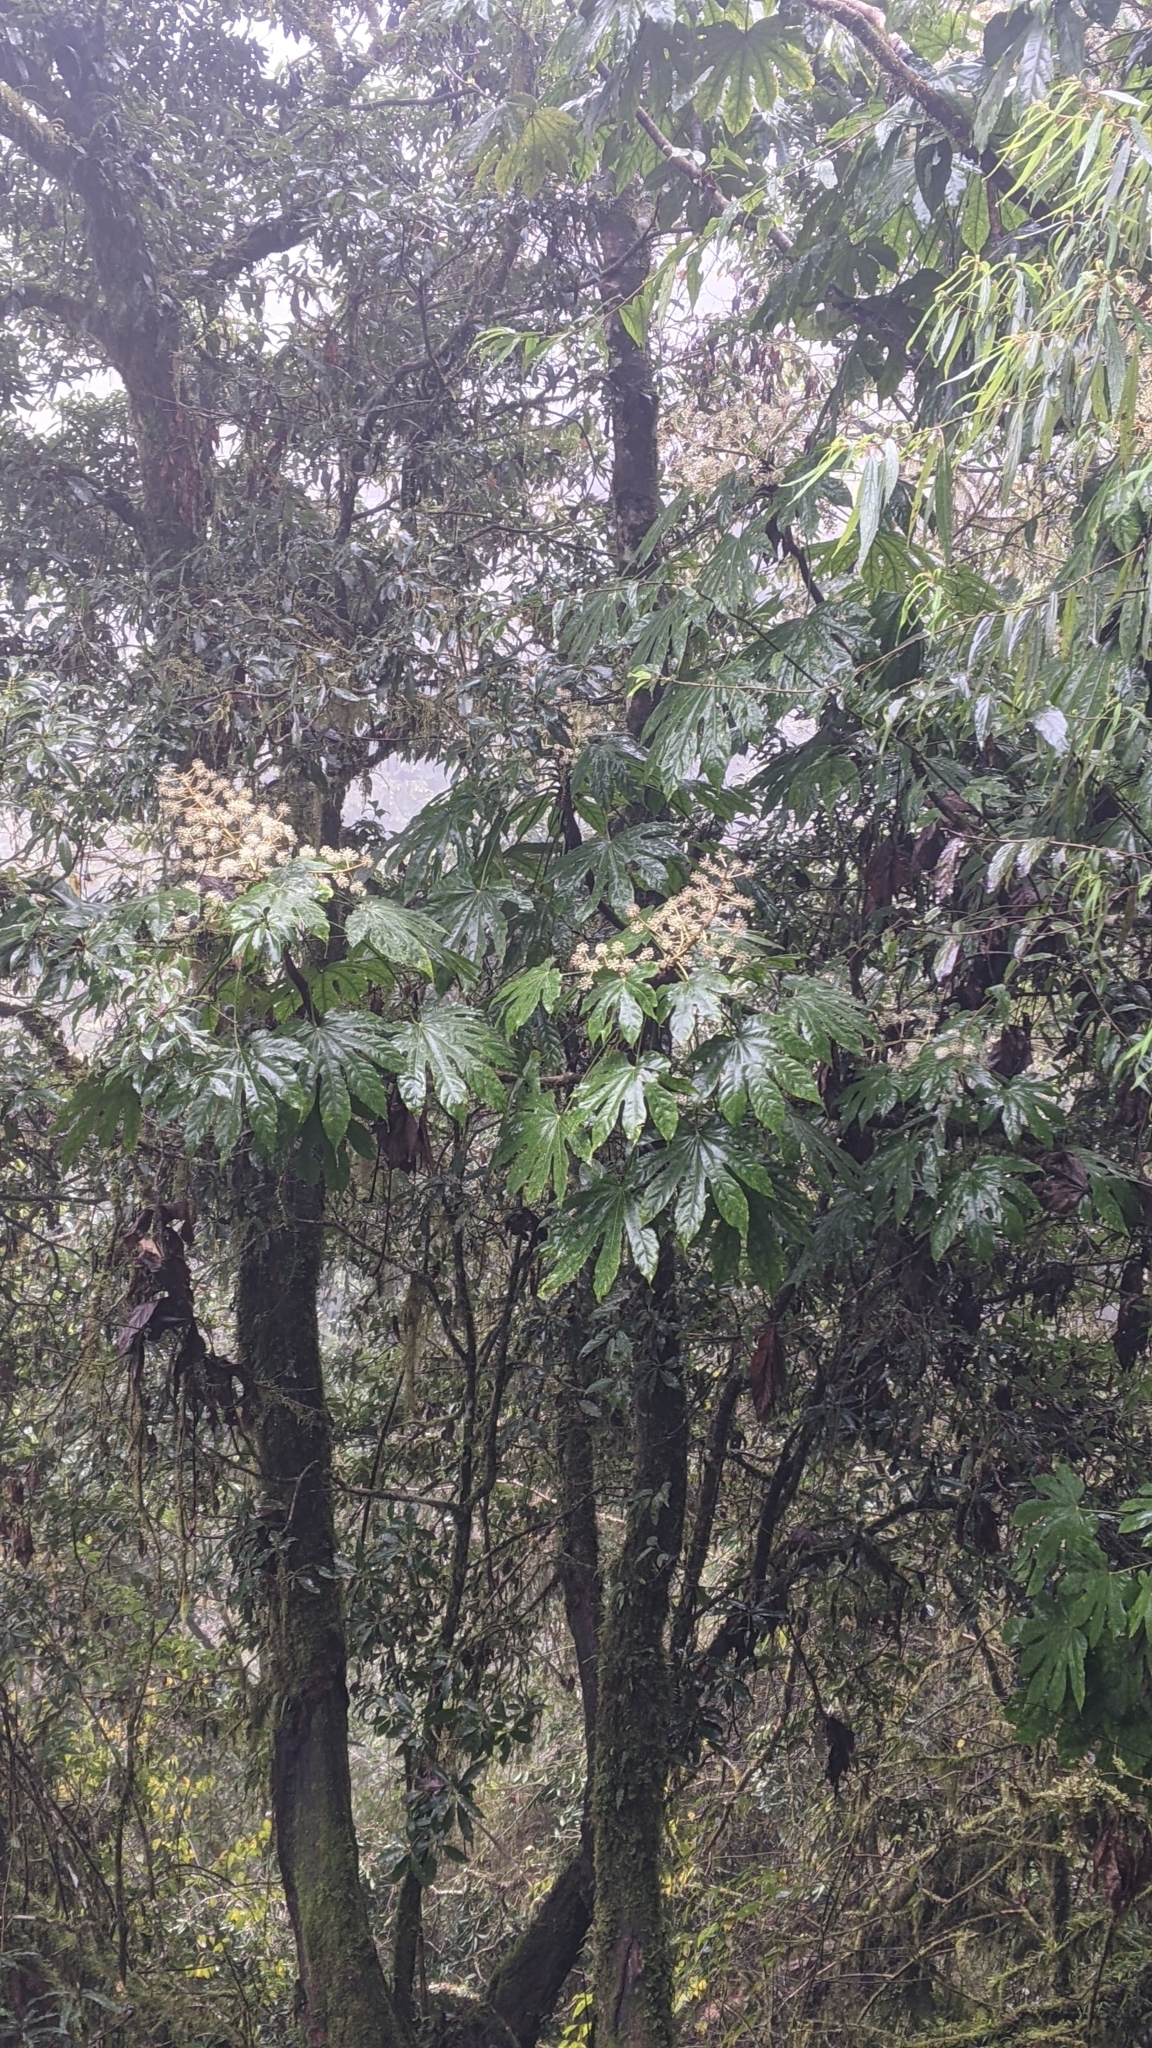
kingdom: Plantae
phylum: Tracheophyta
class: Magnoliopsida
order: Apiales
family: Araliaceae
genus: Fatsia
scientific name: Fatsia polycarpa
